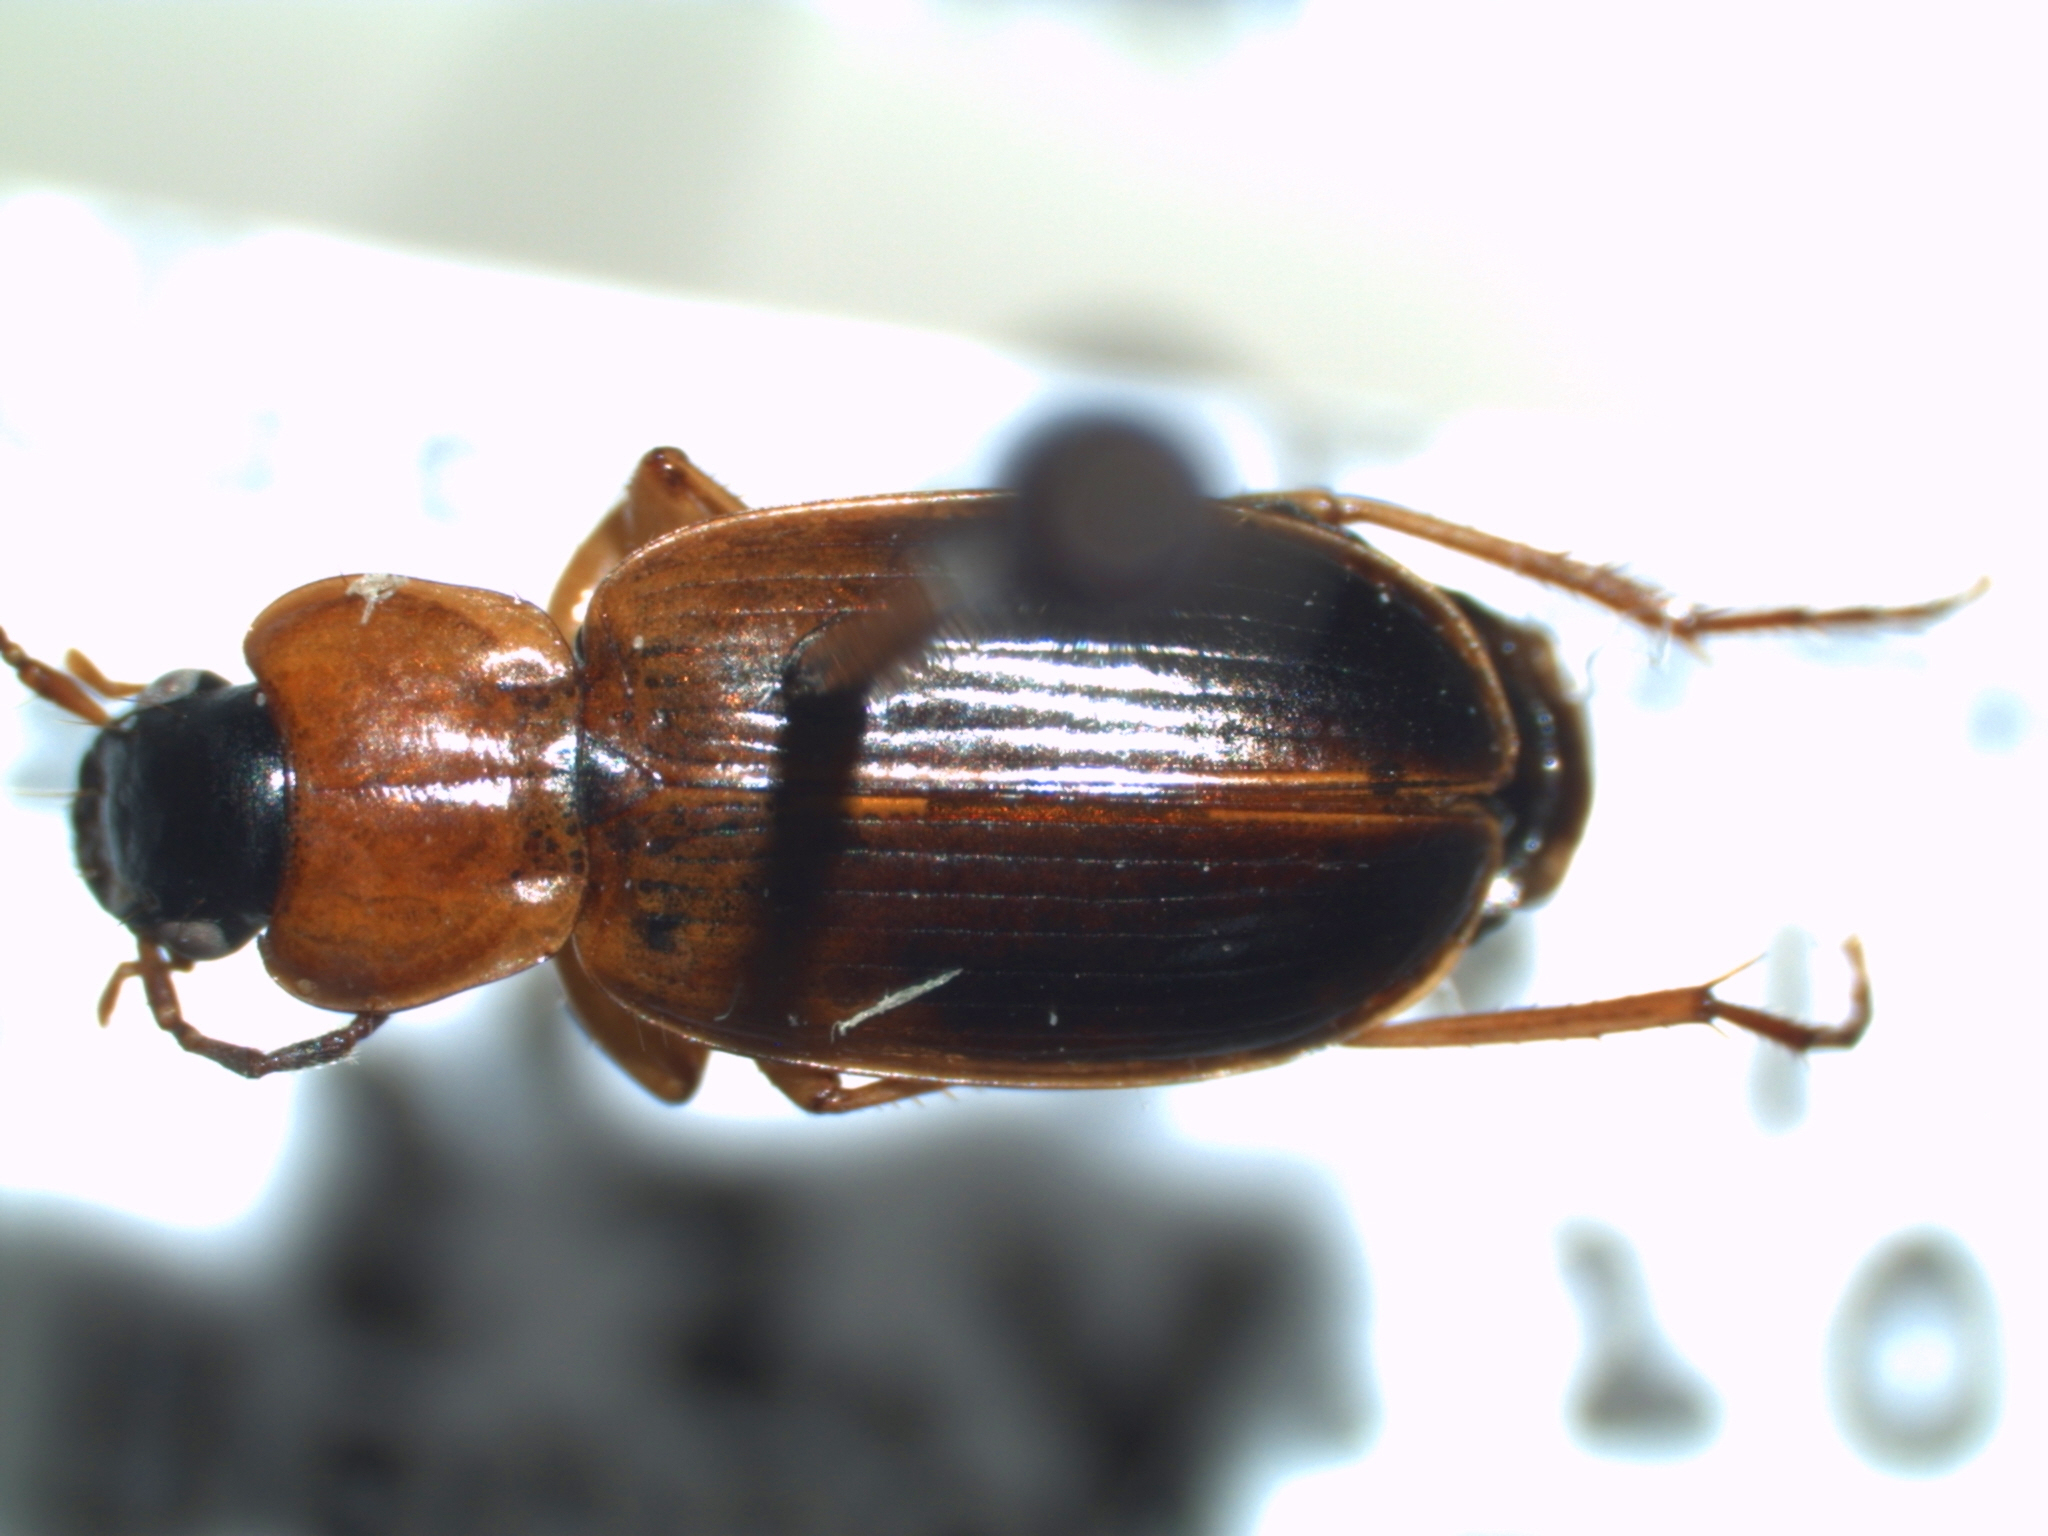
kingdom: Animalia
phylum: Arthropoda
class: Insecta
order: Coleoptera
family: Carabidae
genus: Badister
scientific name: Badister obtusus
